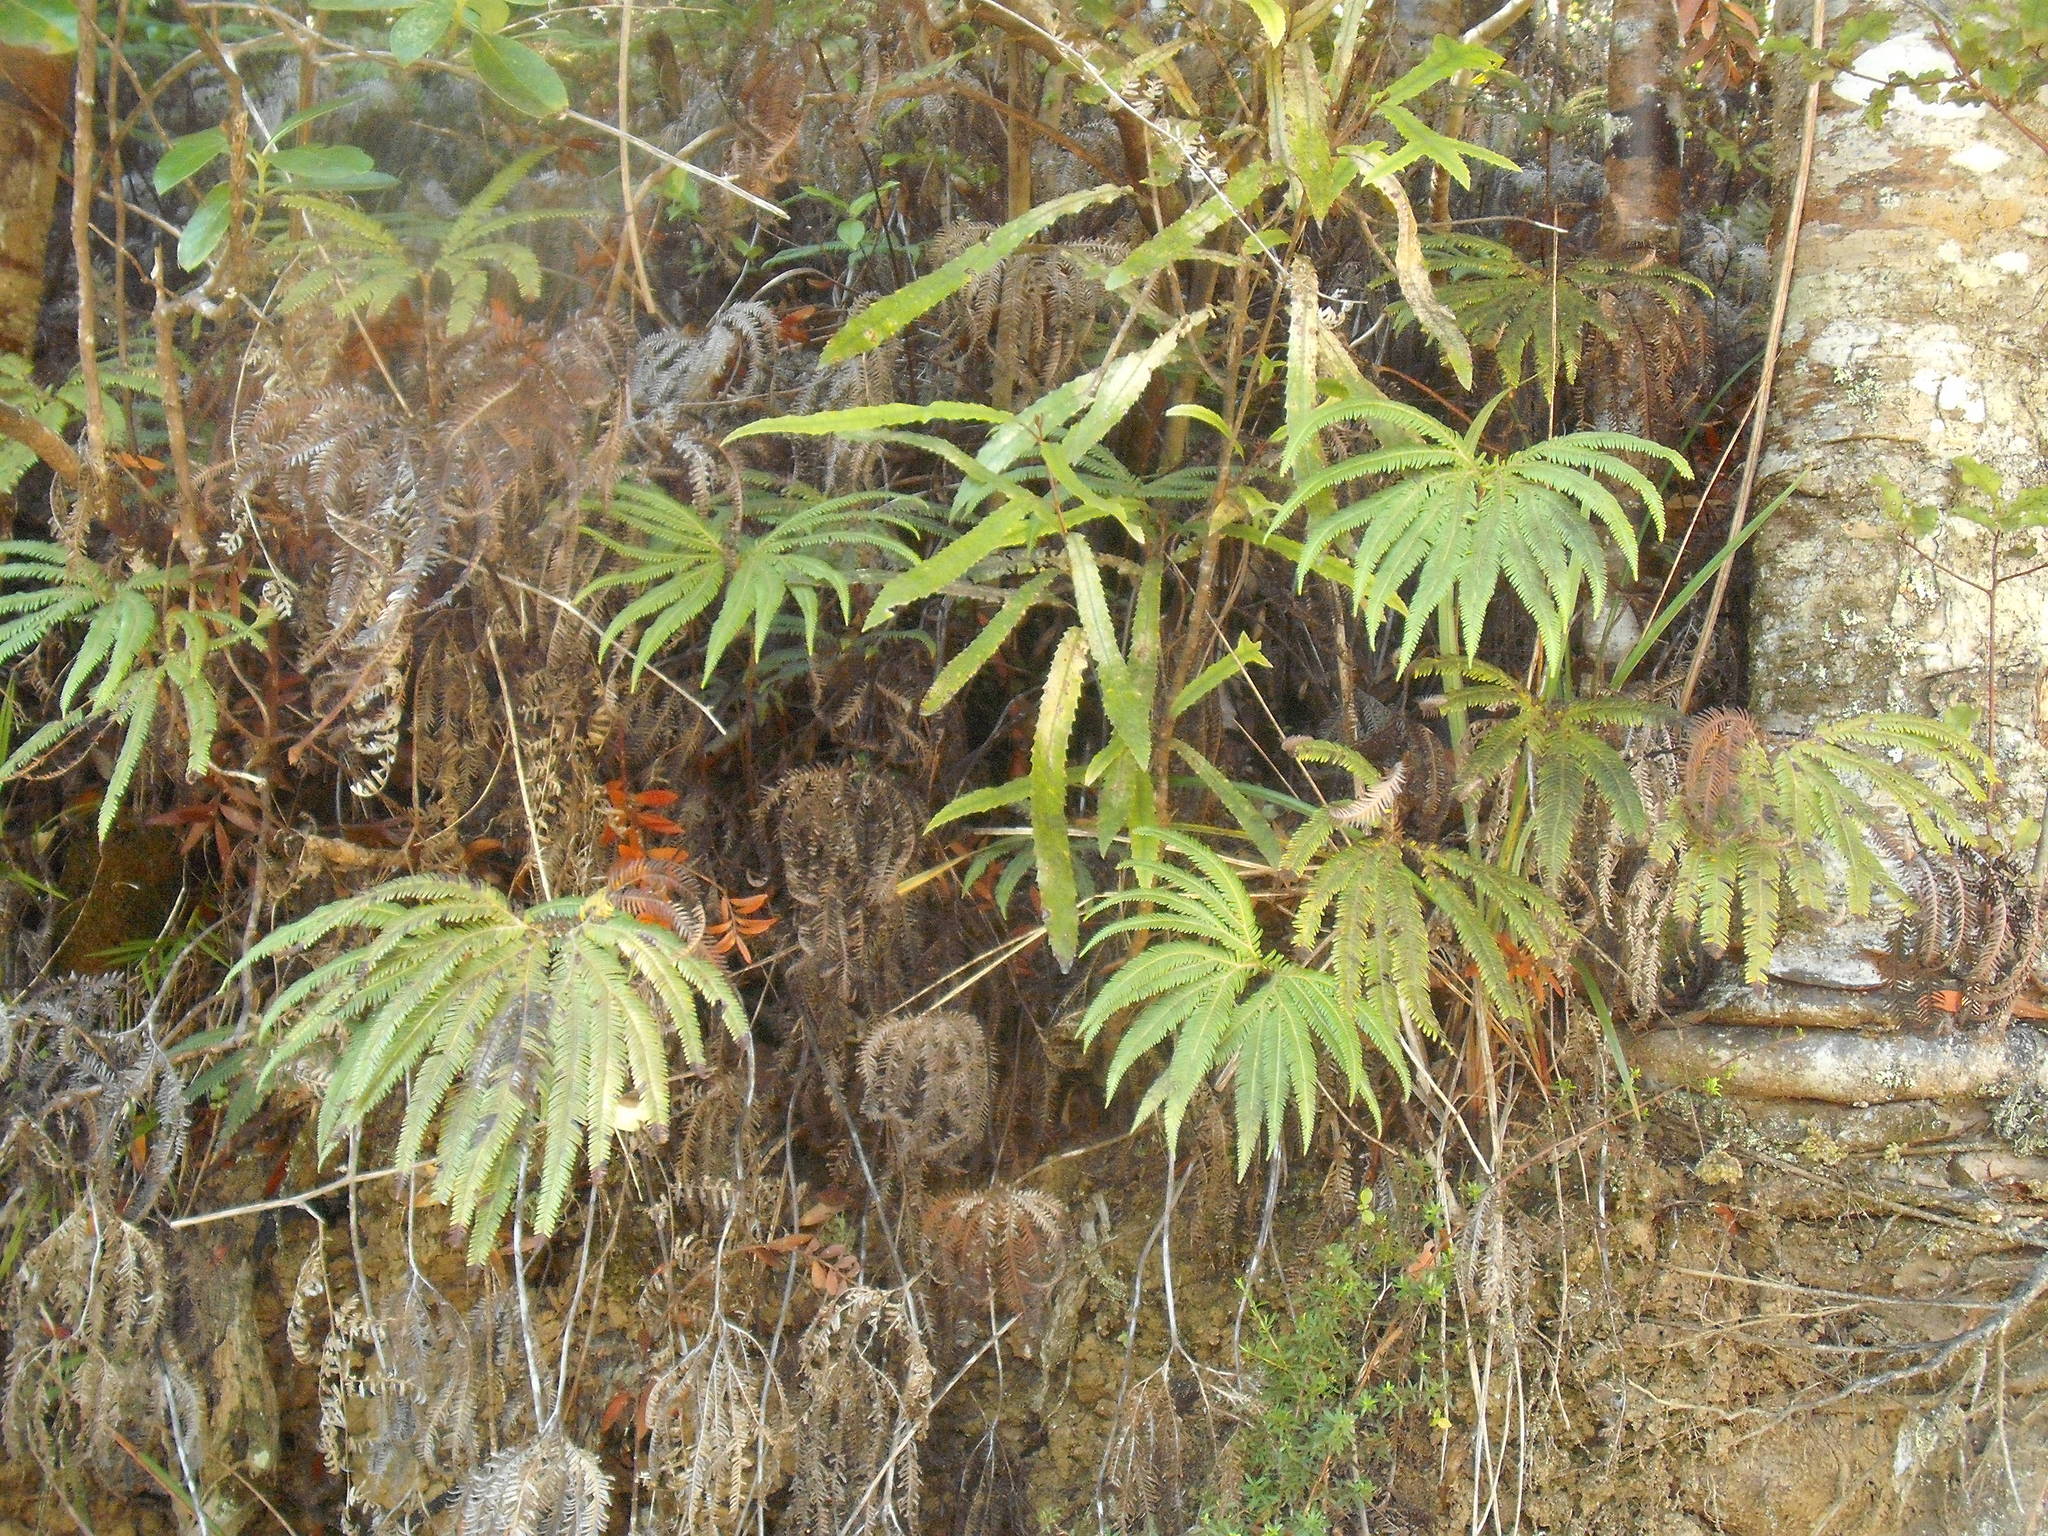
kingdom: Plantae
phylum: Tracheophyta
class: Polypodiopsida
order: Gleicheniales
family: Gleicheniaceae
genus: Sticherus
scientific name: Sticherus cunninghamii
